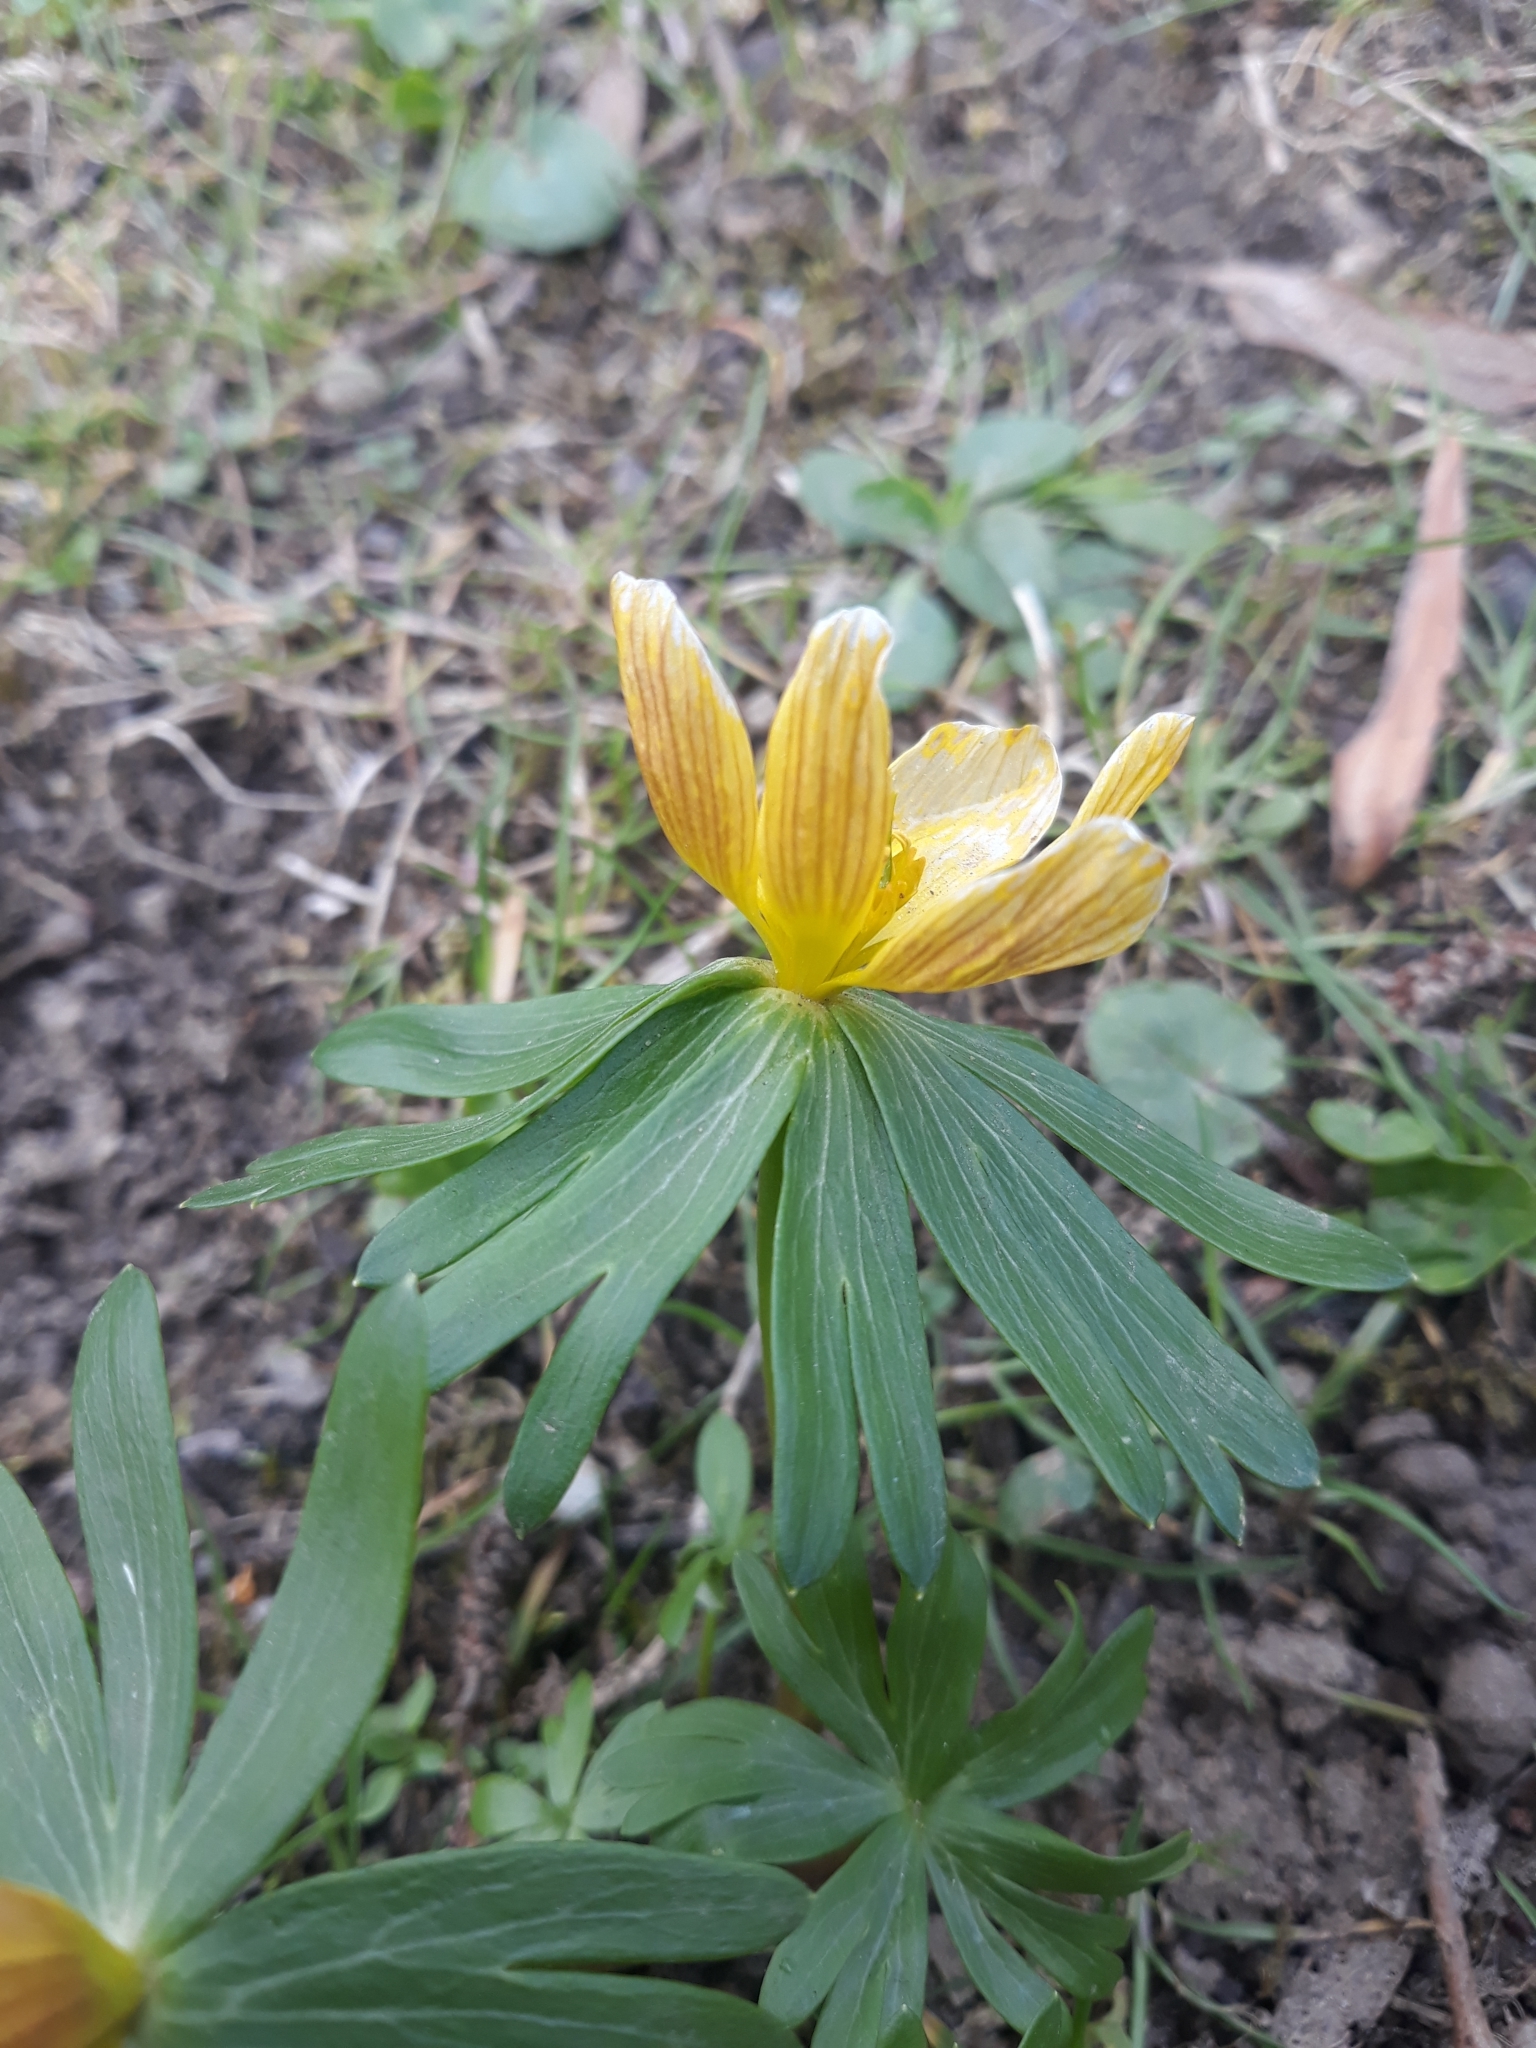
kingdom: Plantae
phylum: Tracheophyta
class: Magnoliopsida
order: Ranunculales
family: Ranunculaceae
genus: Eranthis
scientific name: Eranthis hyemalis
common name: Winter aconite
